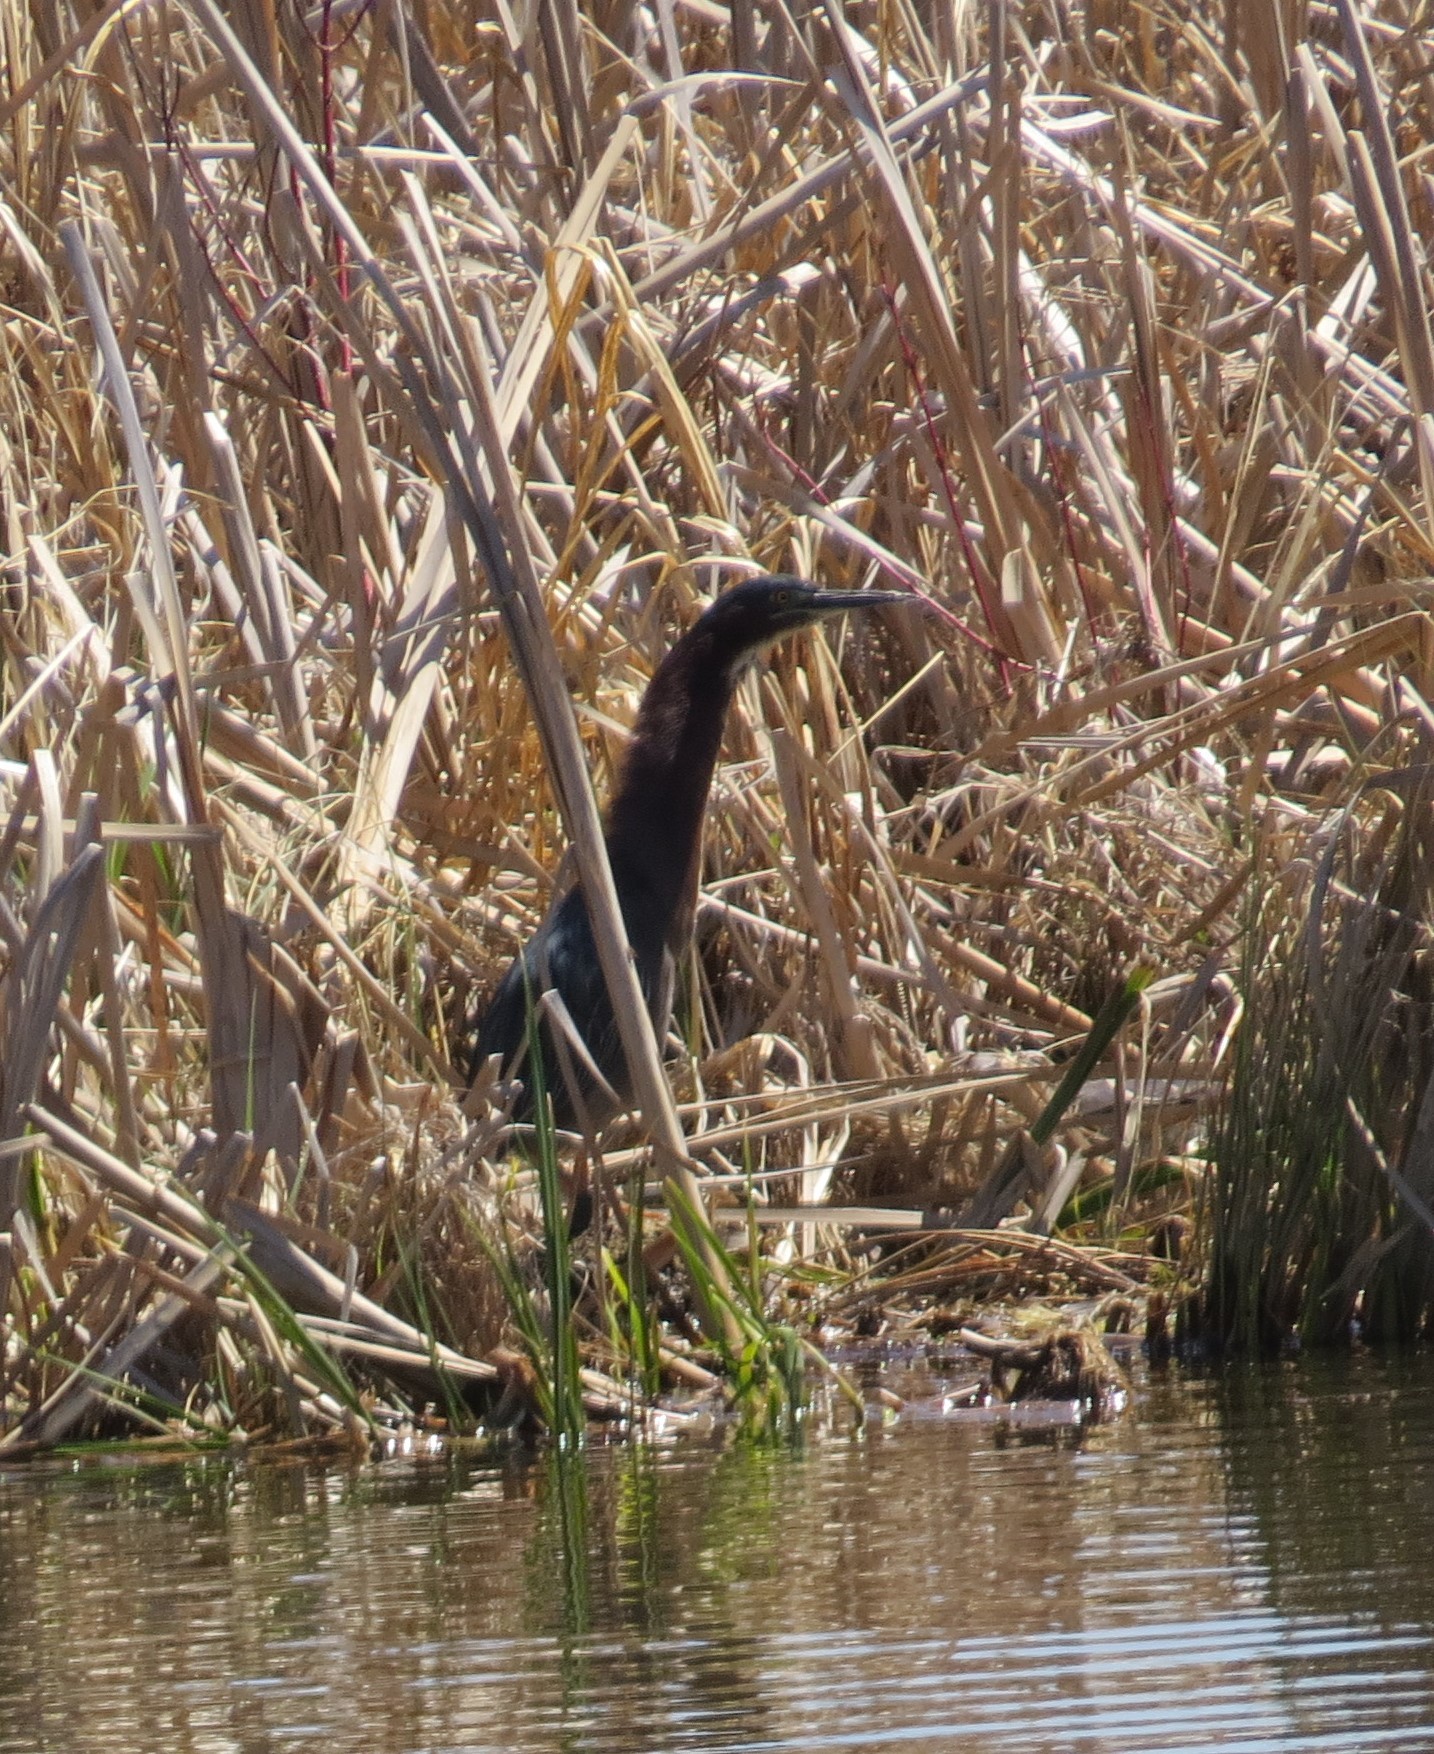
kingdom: Animalia
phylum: Chordata
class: Aves
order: Pelecaniformes
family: Ardeidae
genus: Butorides
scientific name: Butorides virescens
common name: Green heron
